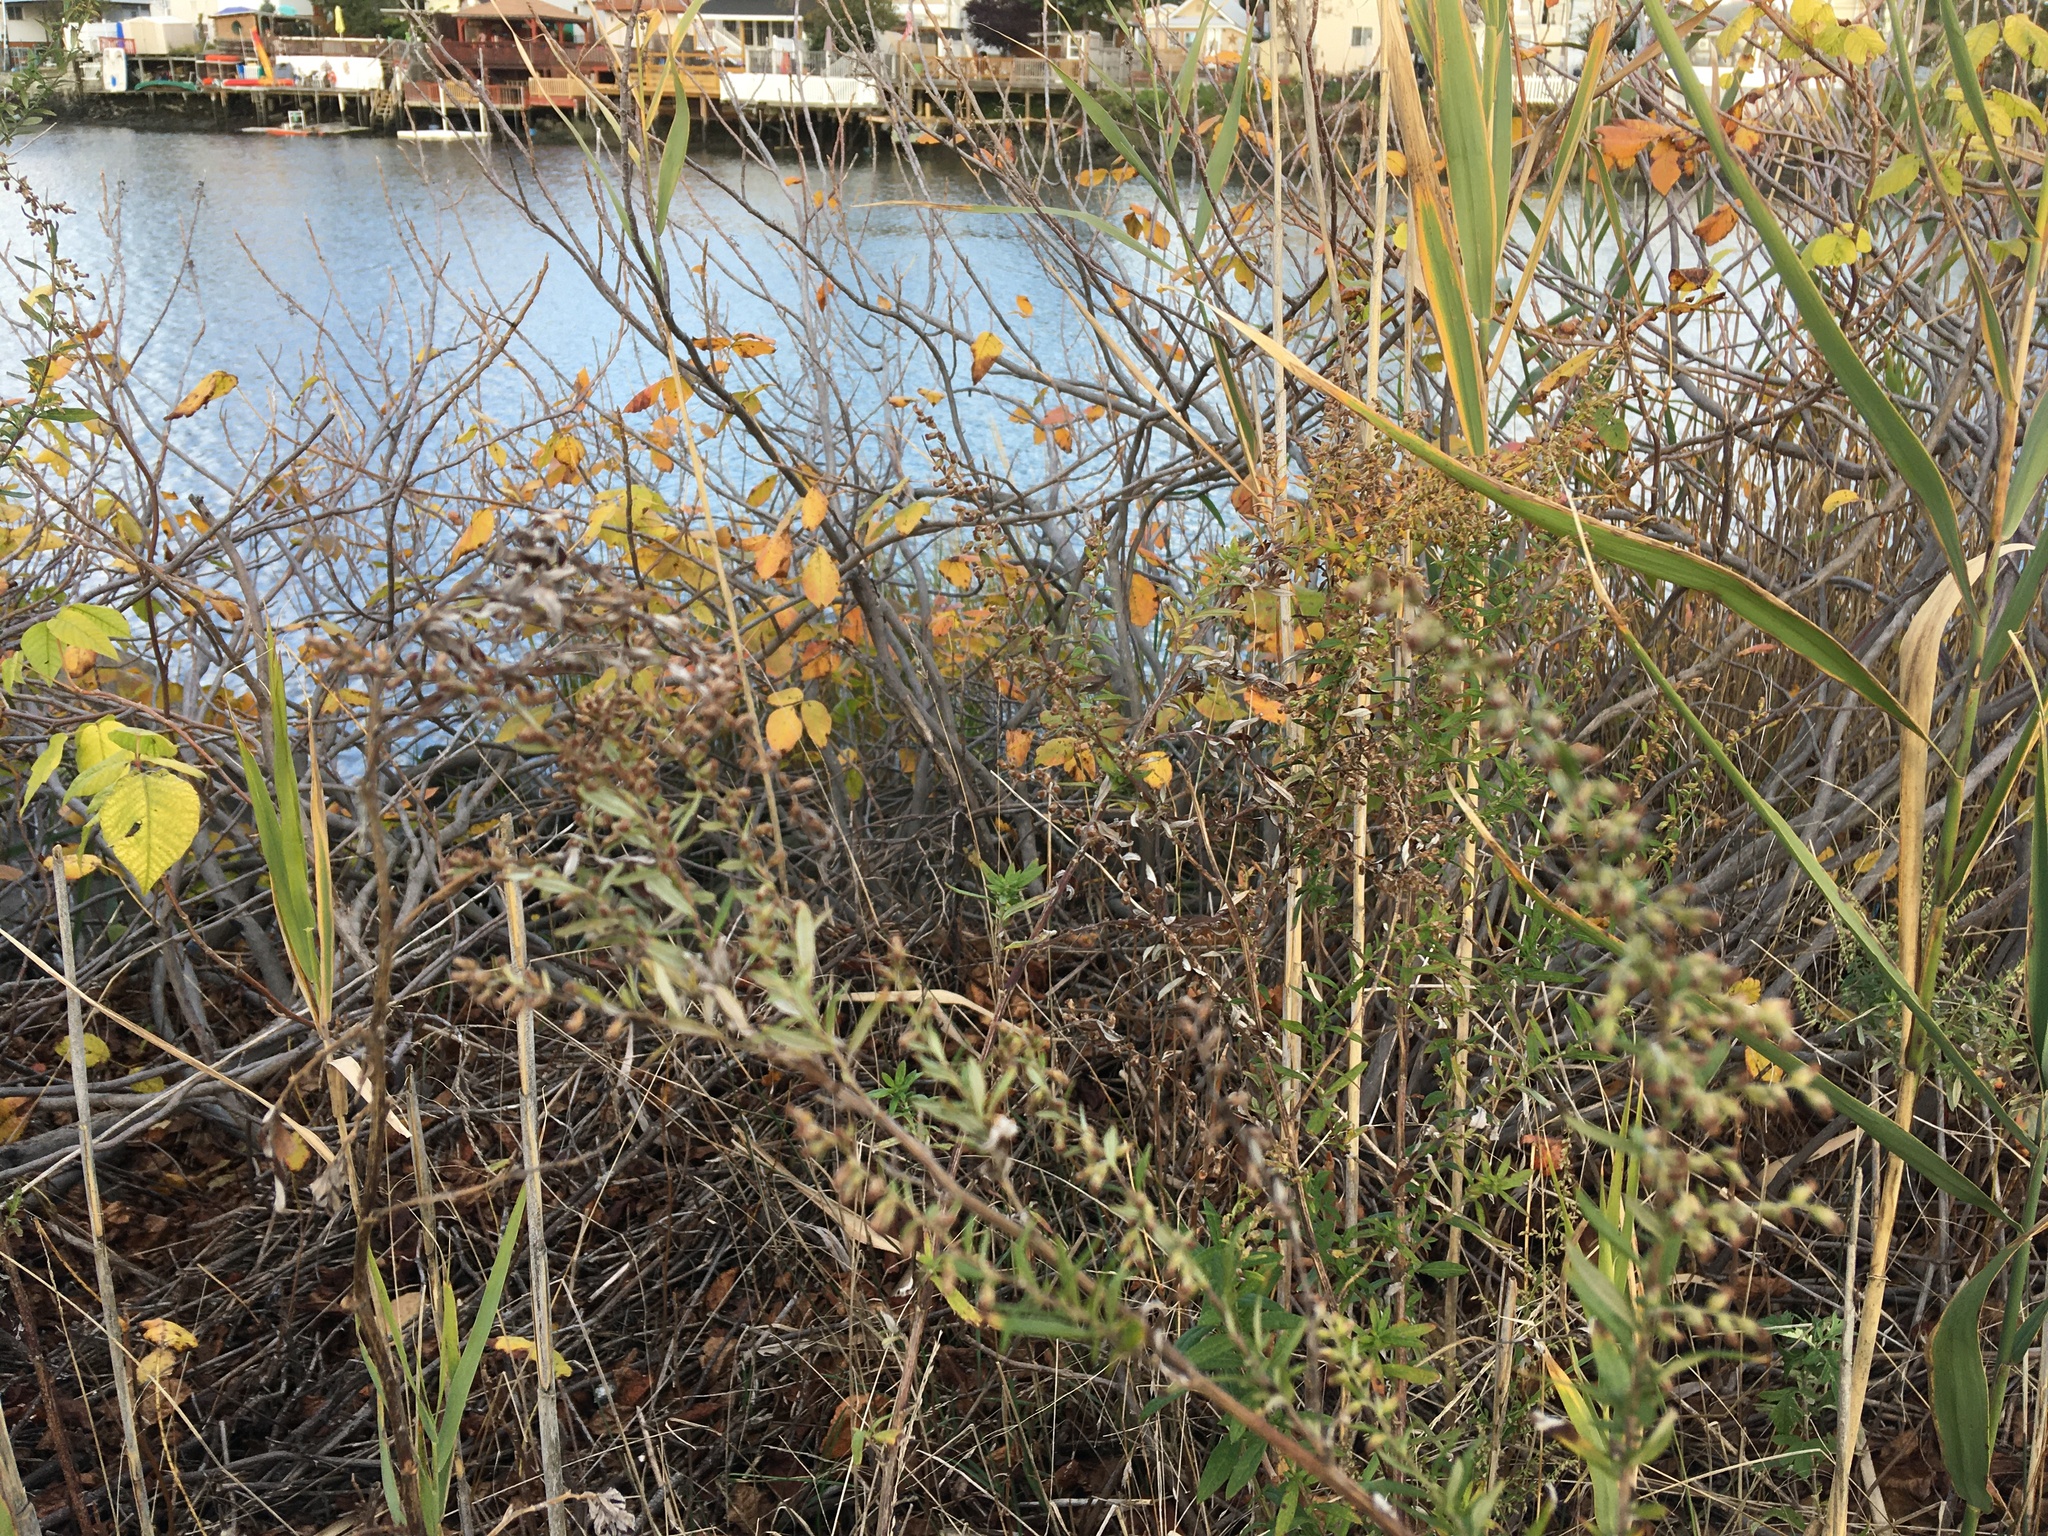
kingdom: Plantae
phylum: Tracheophyta
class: Magnoliopsida
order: Asterales
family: Asteraceae
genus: Artemisia
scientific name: Artemisia vulgaris
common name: Mugwort
